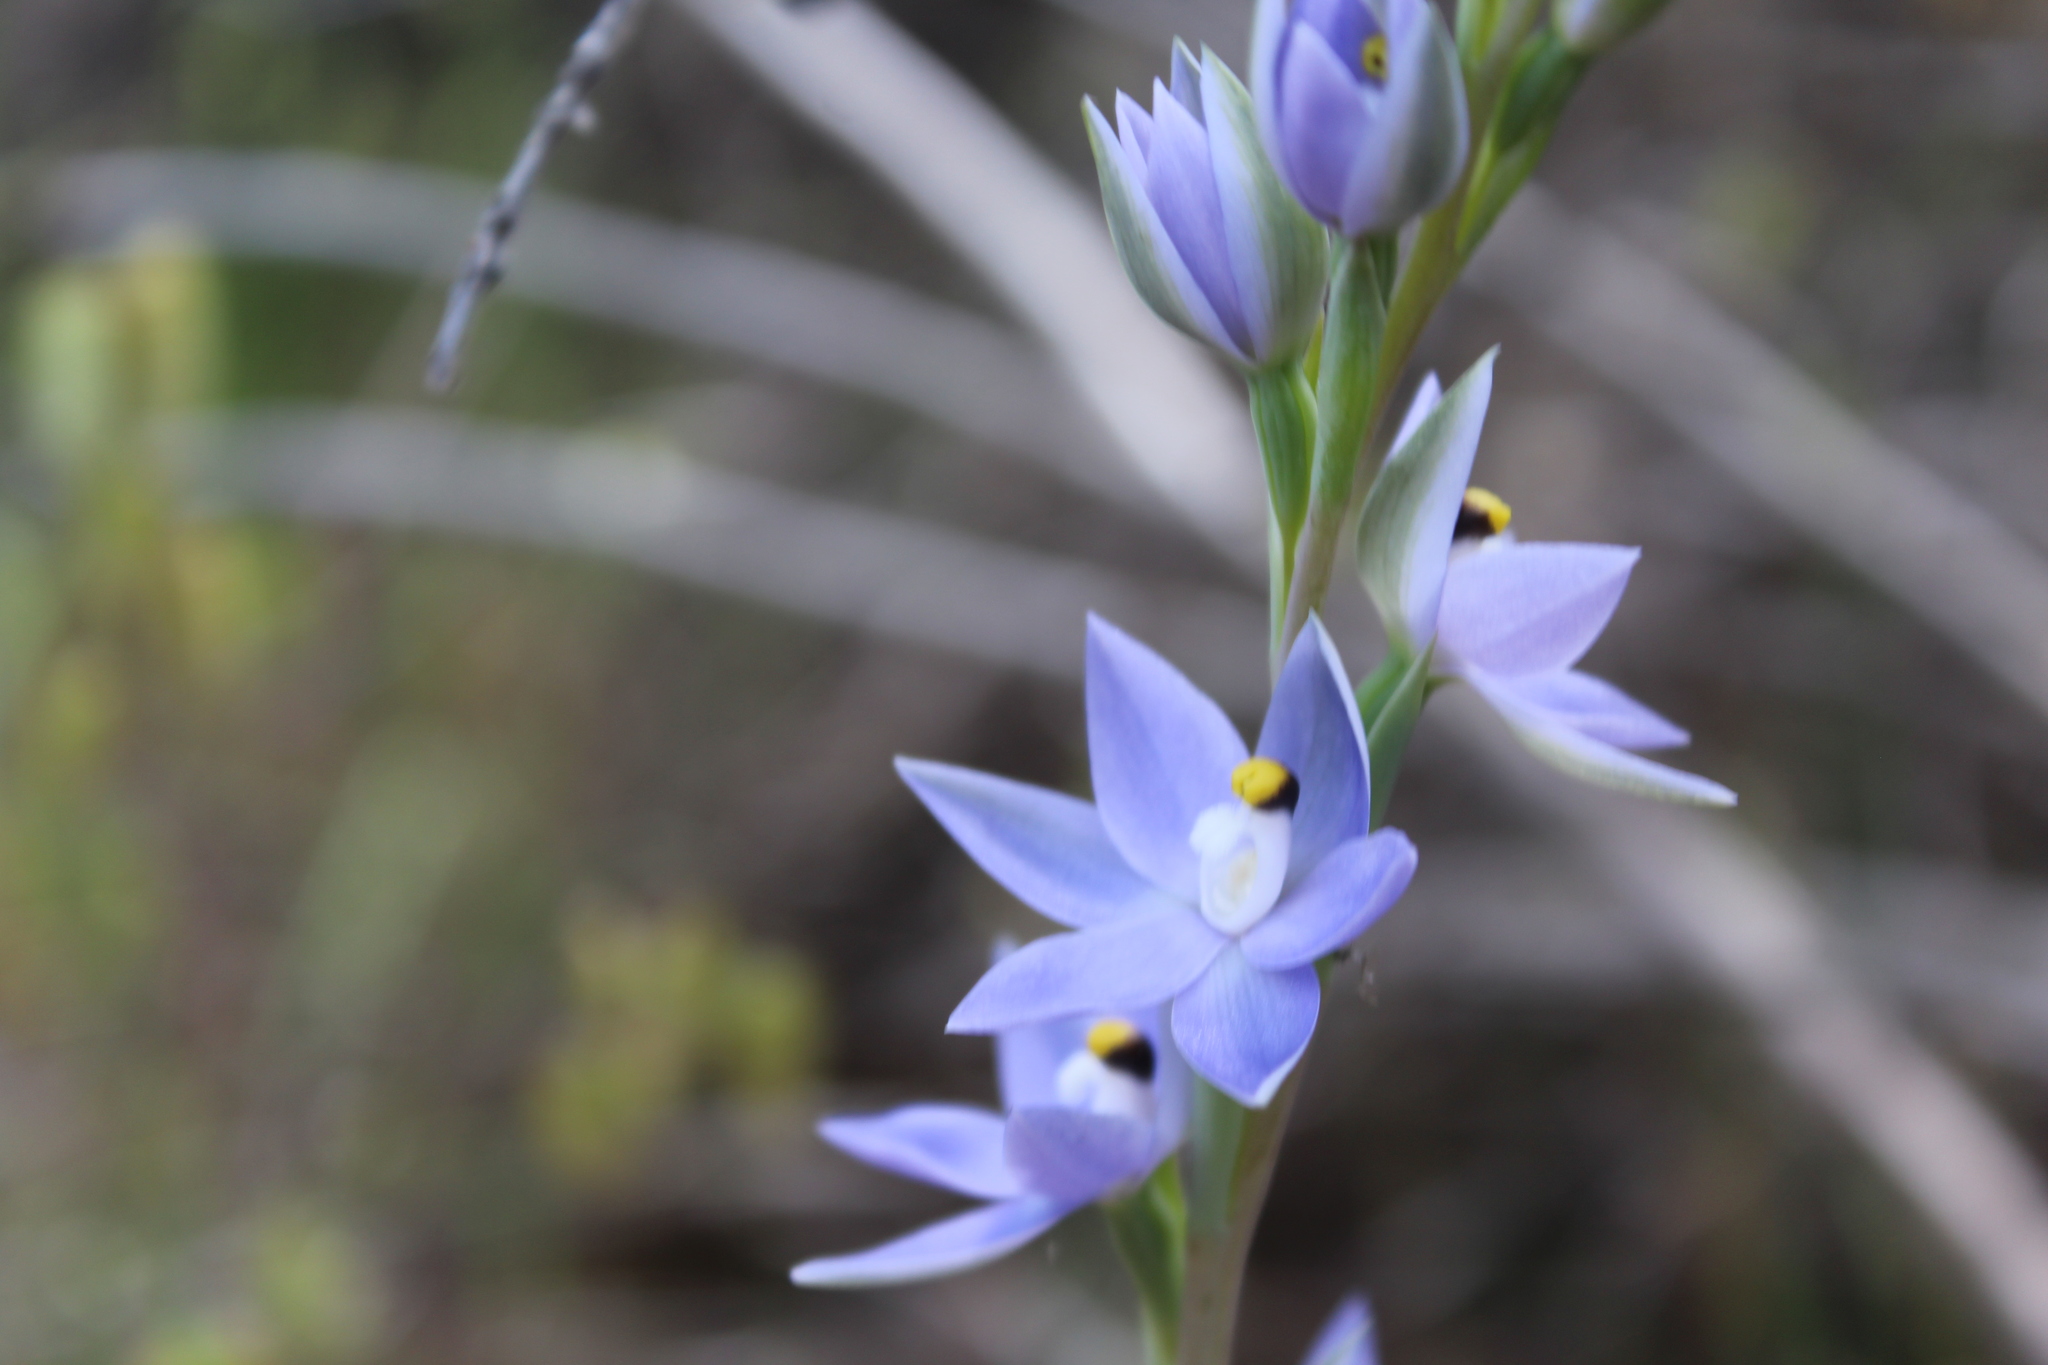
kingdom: Plantae
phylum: Tracheophyta
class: Liliopsida
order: Asparagales
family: Orchidaceae
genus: Thelymitra
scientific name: Thelymitra petrophila
